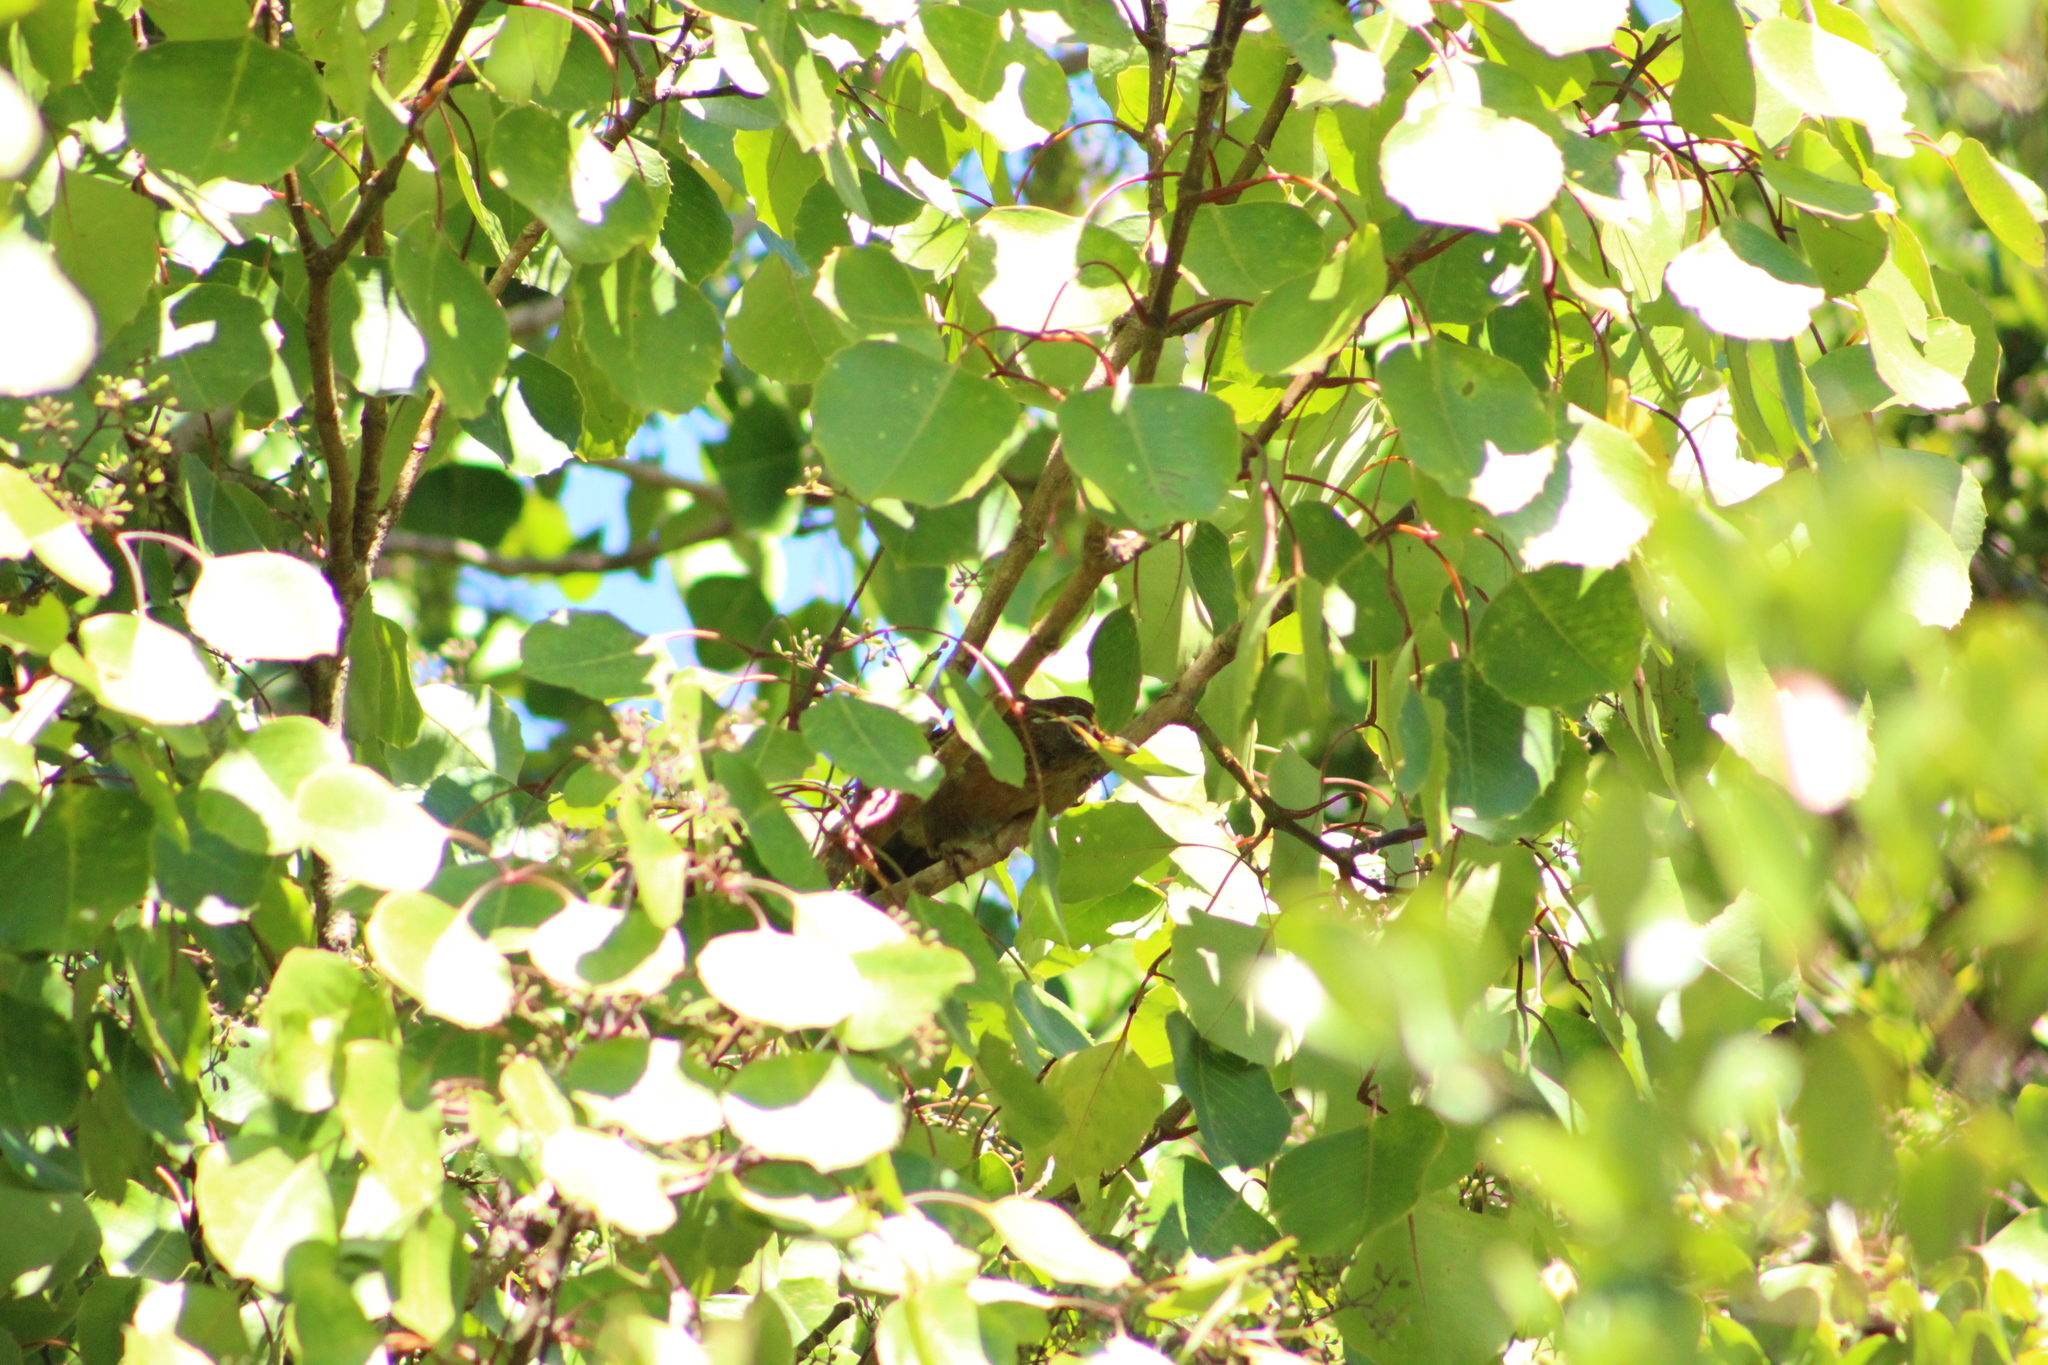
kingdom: Animalia
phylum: Chordata
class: Aves
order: Passeriformes
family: Leiothrichidae
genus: Garrulax
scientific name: Garrulax canorus
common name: Chinese hwamei
